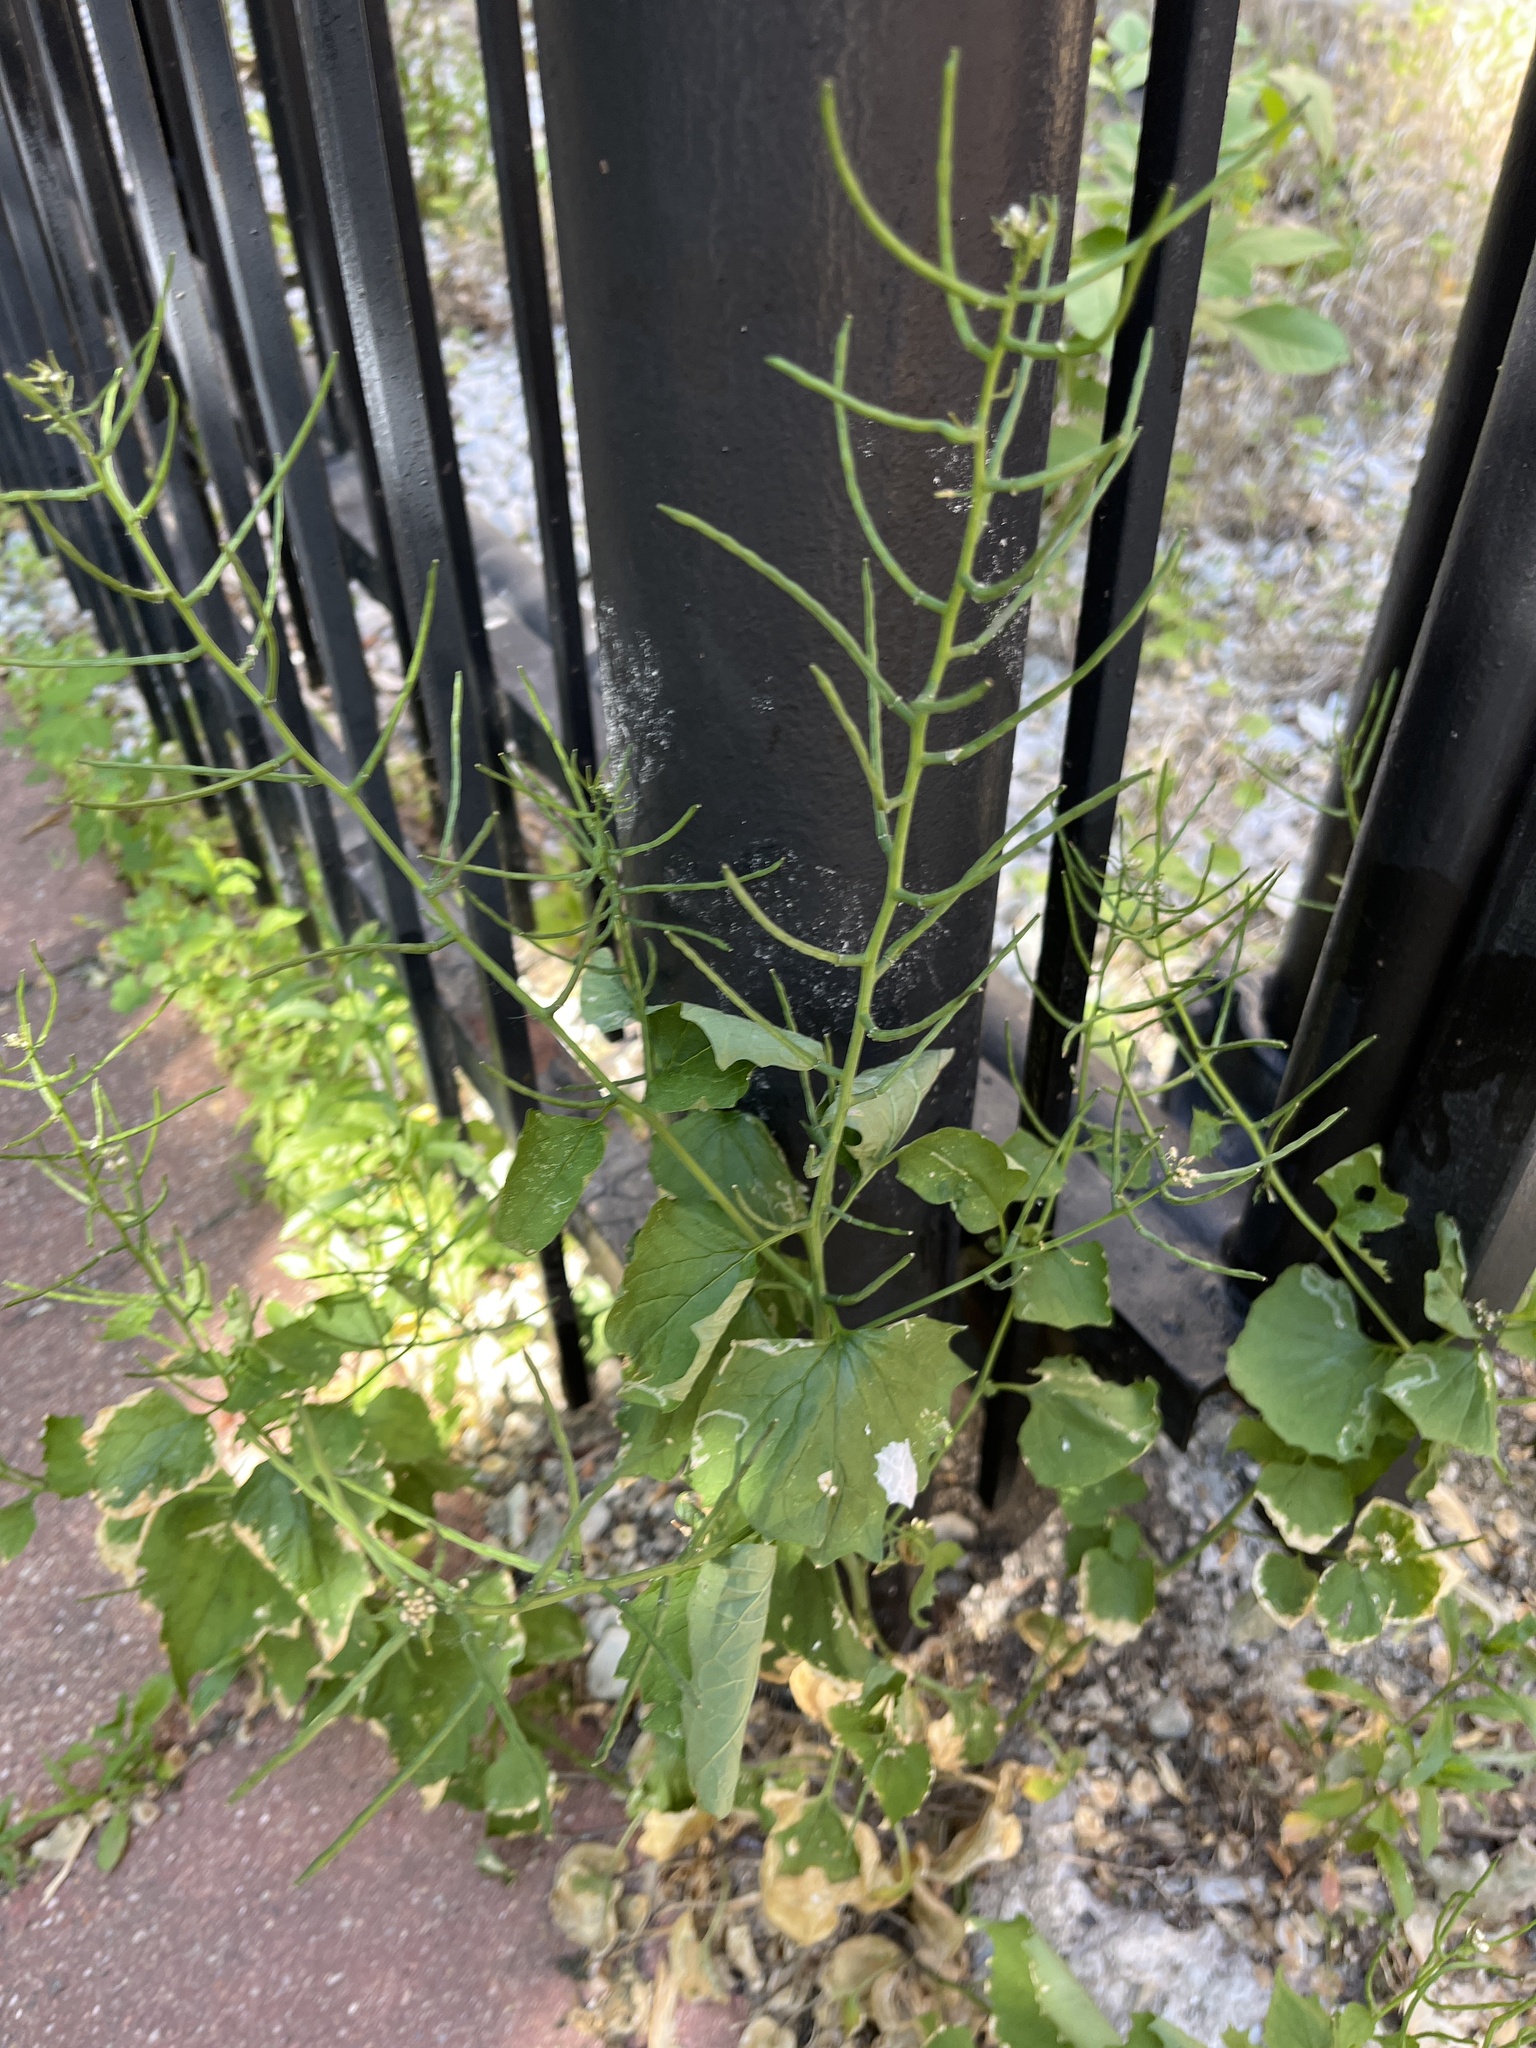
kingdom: Plantae
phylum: Tracheophyta
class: Magnoliopsida
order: Brassicales
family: Brassicaceae
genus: Alliaria
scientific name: Alliaria petiolata
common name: Garlic mustard
